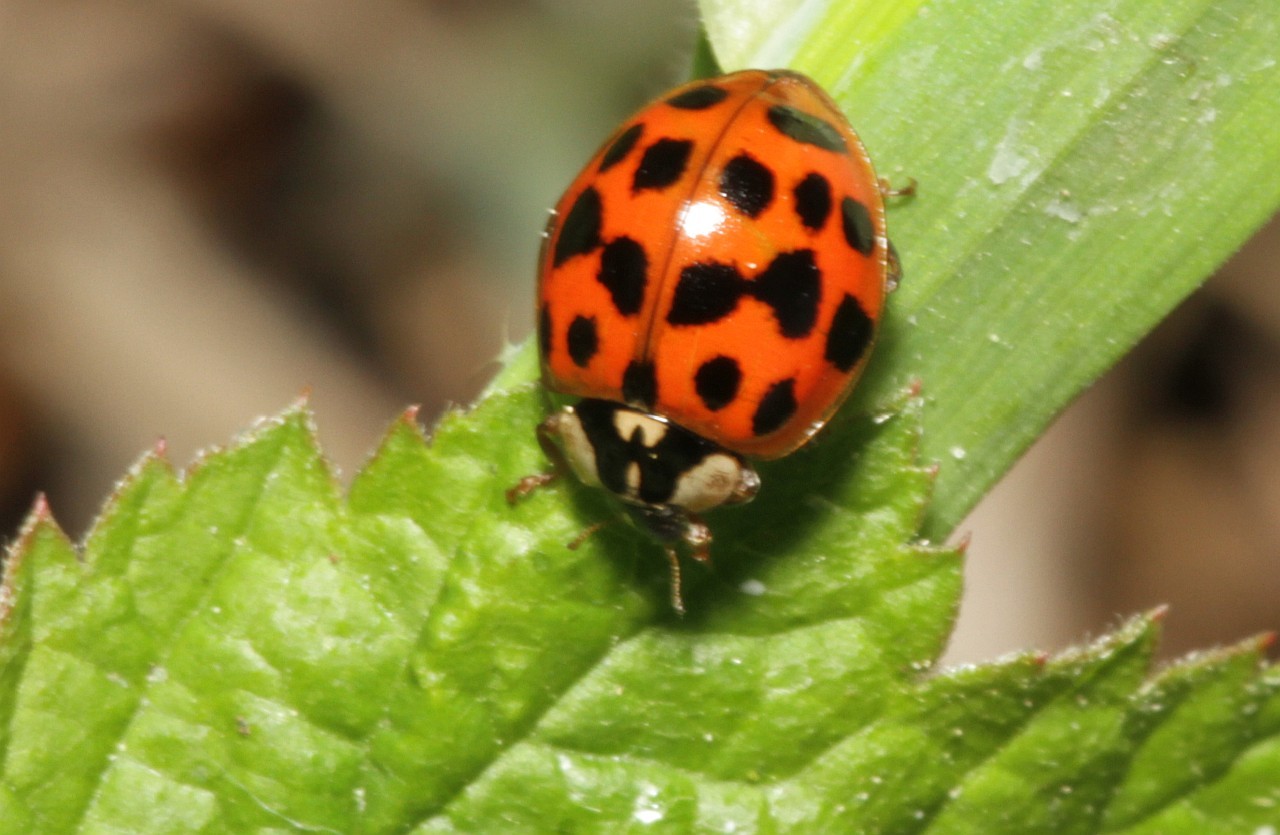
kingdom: Animalia
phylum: Arthropoda
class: Insecta
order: Coleoptera
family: Coccinellidae
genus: Harmonia
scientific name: Harmonia axyridis
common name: Harlequin ladybird
